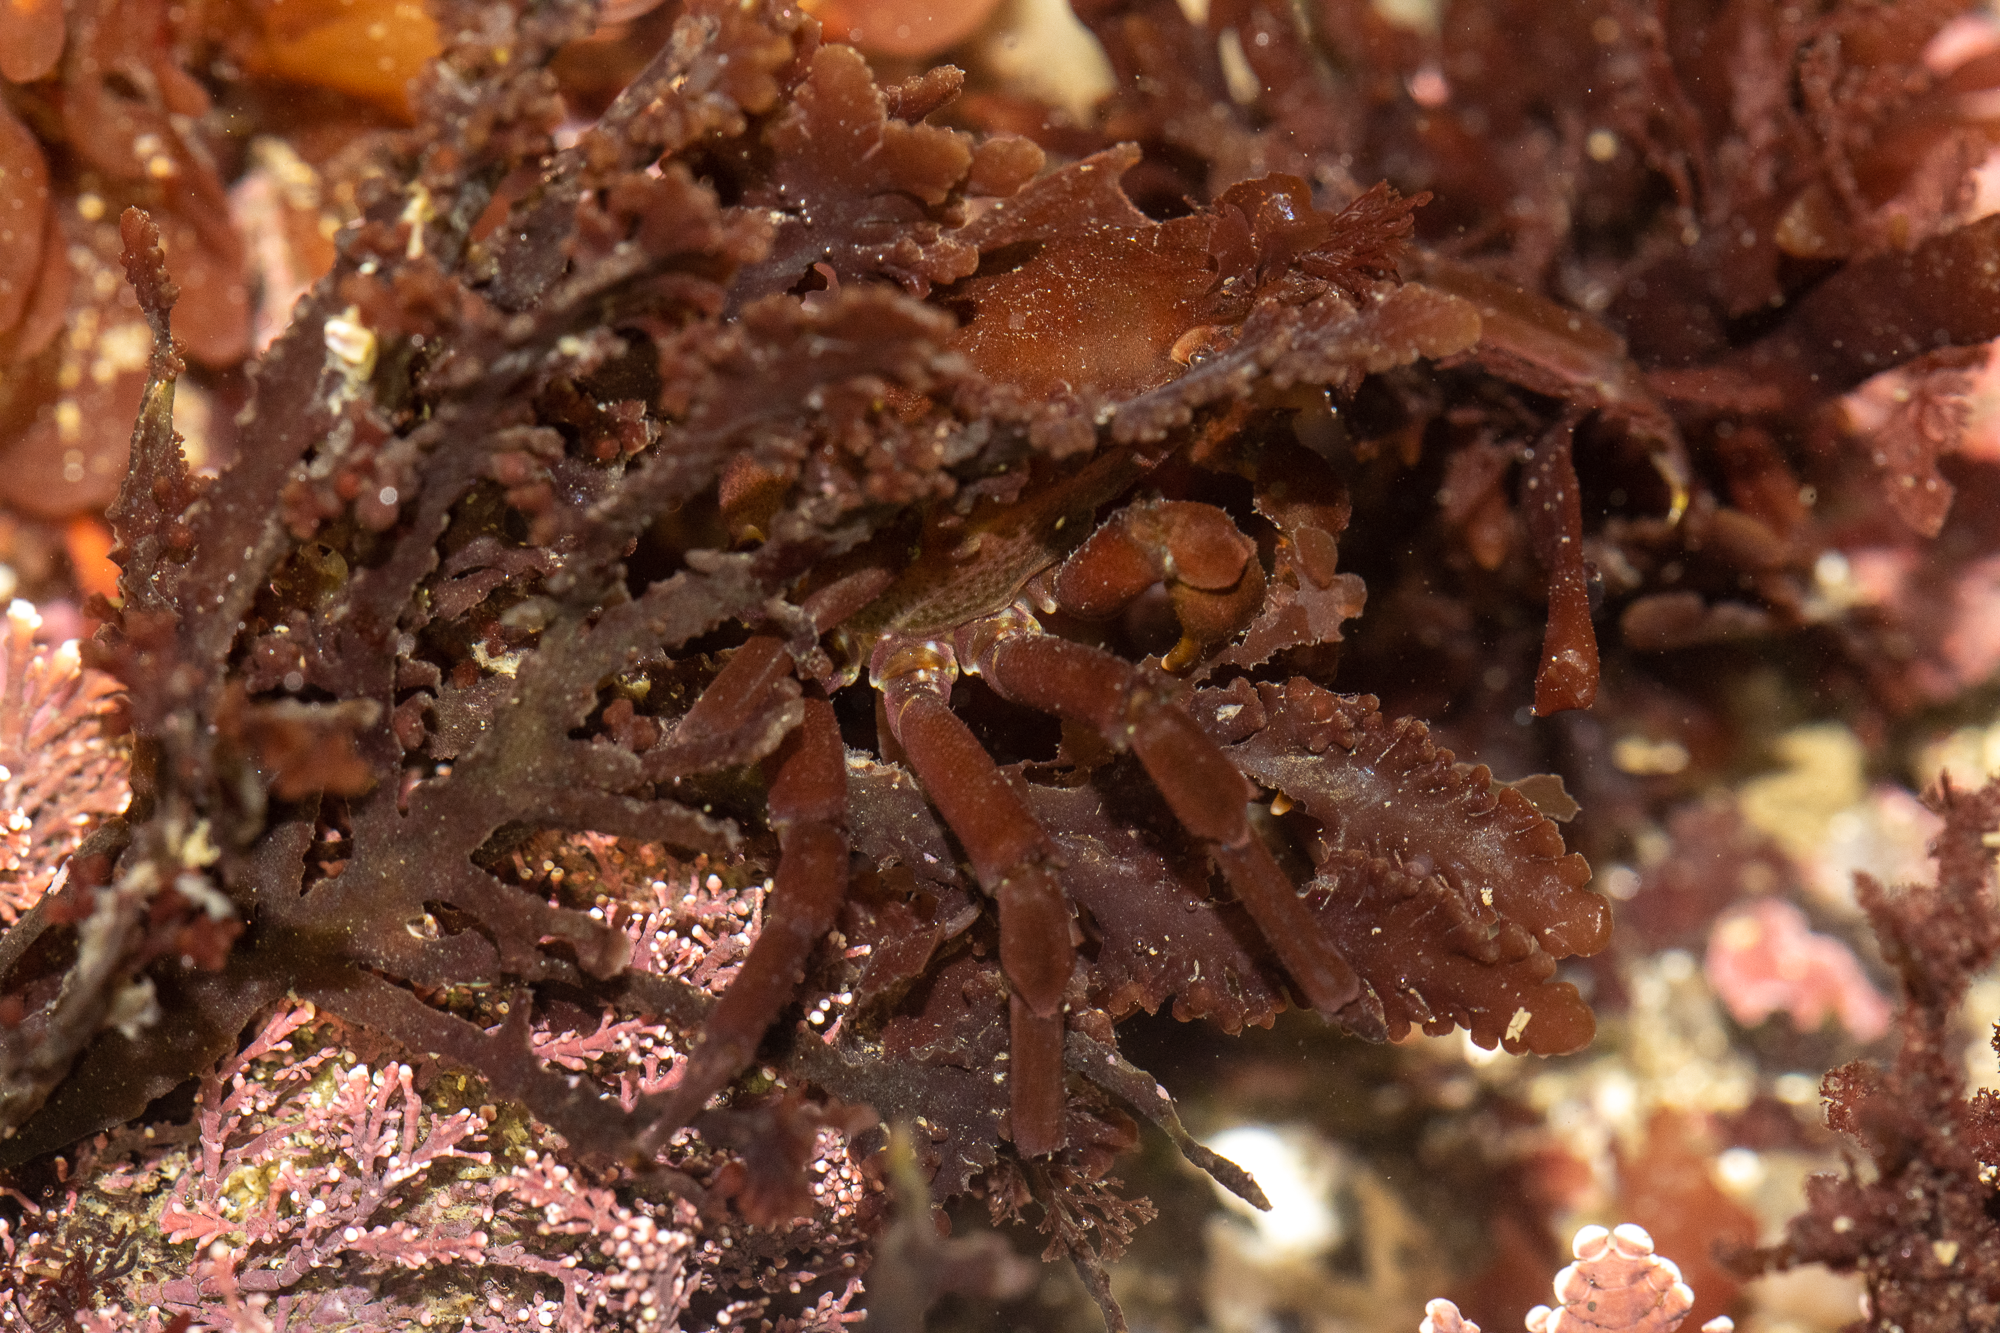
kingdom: Animalia
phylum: Arthropoda
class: Malacostraca
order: Decapoda
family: Epialtidae
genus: Pugettia
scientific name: Pugettia producta
